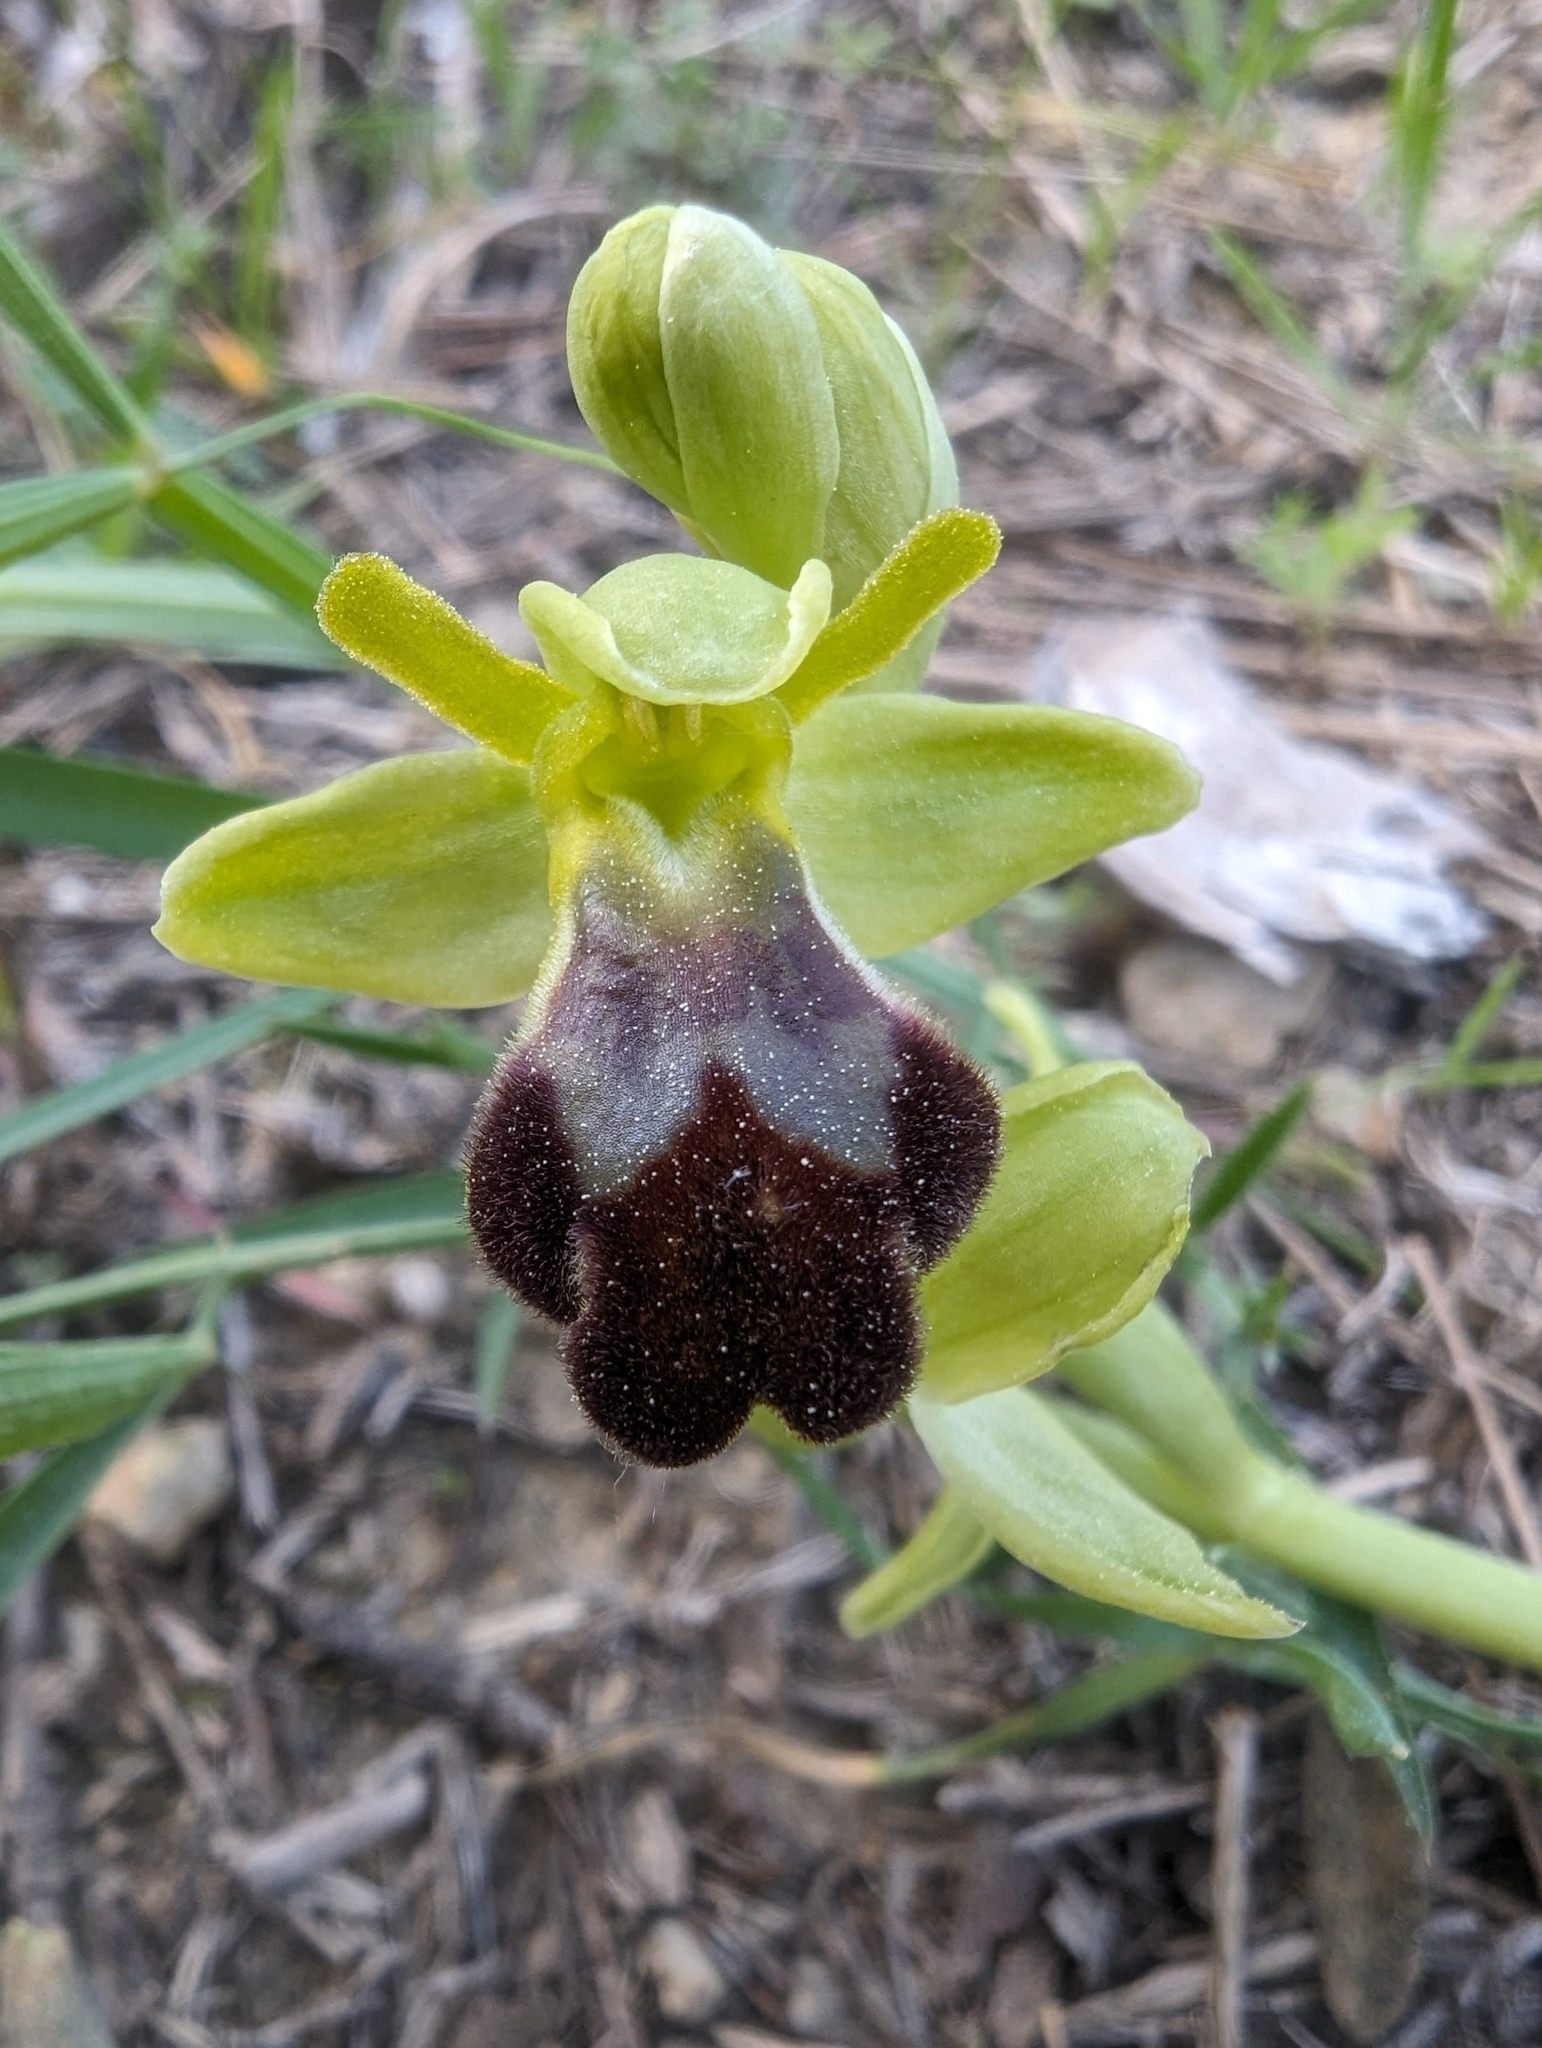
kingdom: Plantae
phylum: Tracheophyta
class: Liliopsida
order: Asparagales
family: Orchidaceae
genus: Ophrys
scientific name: Ophrys fusca
